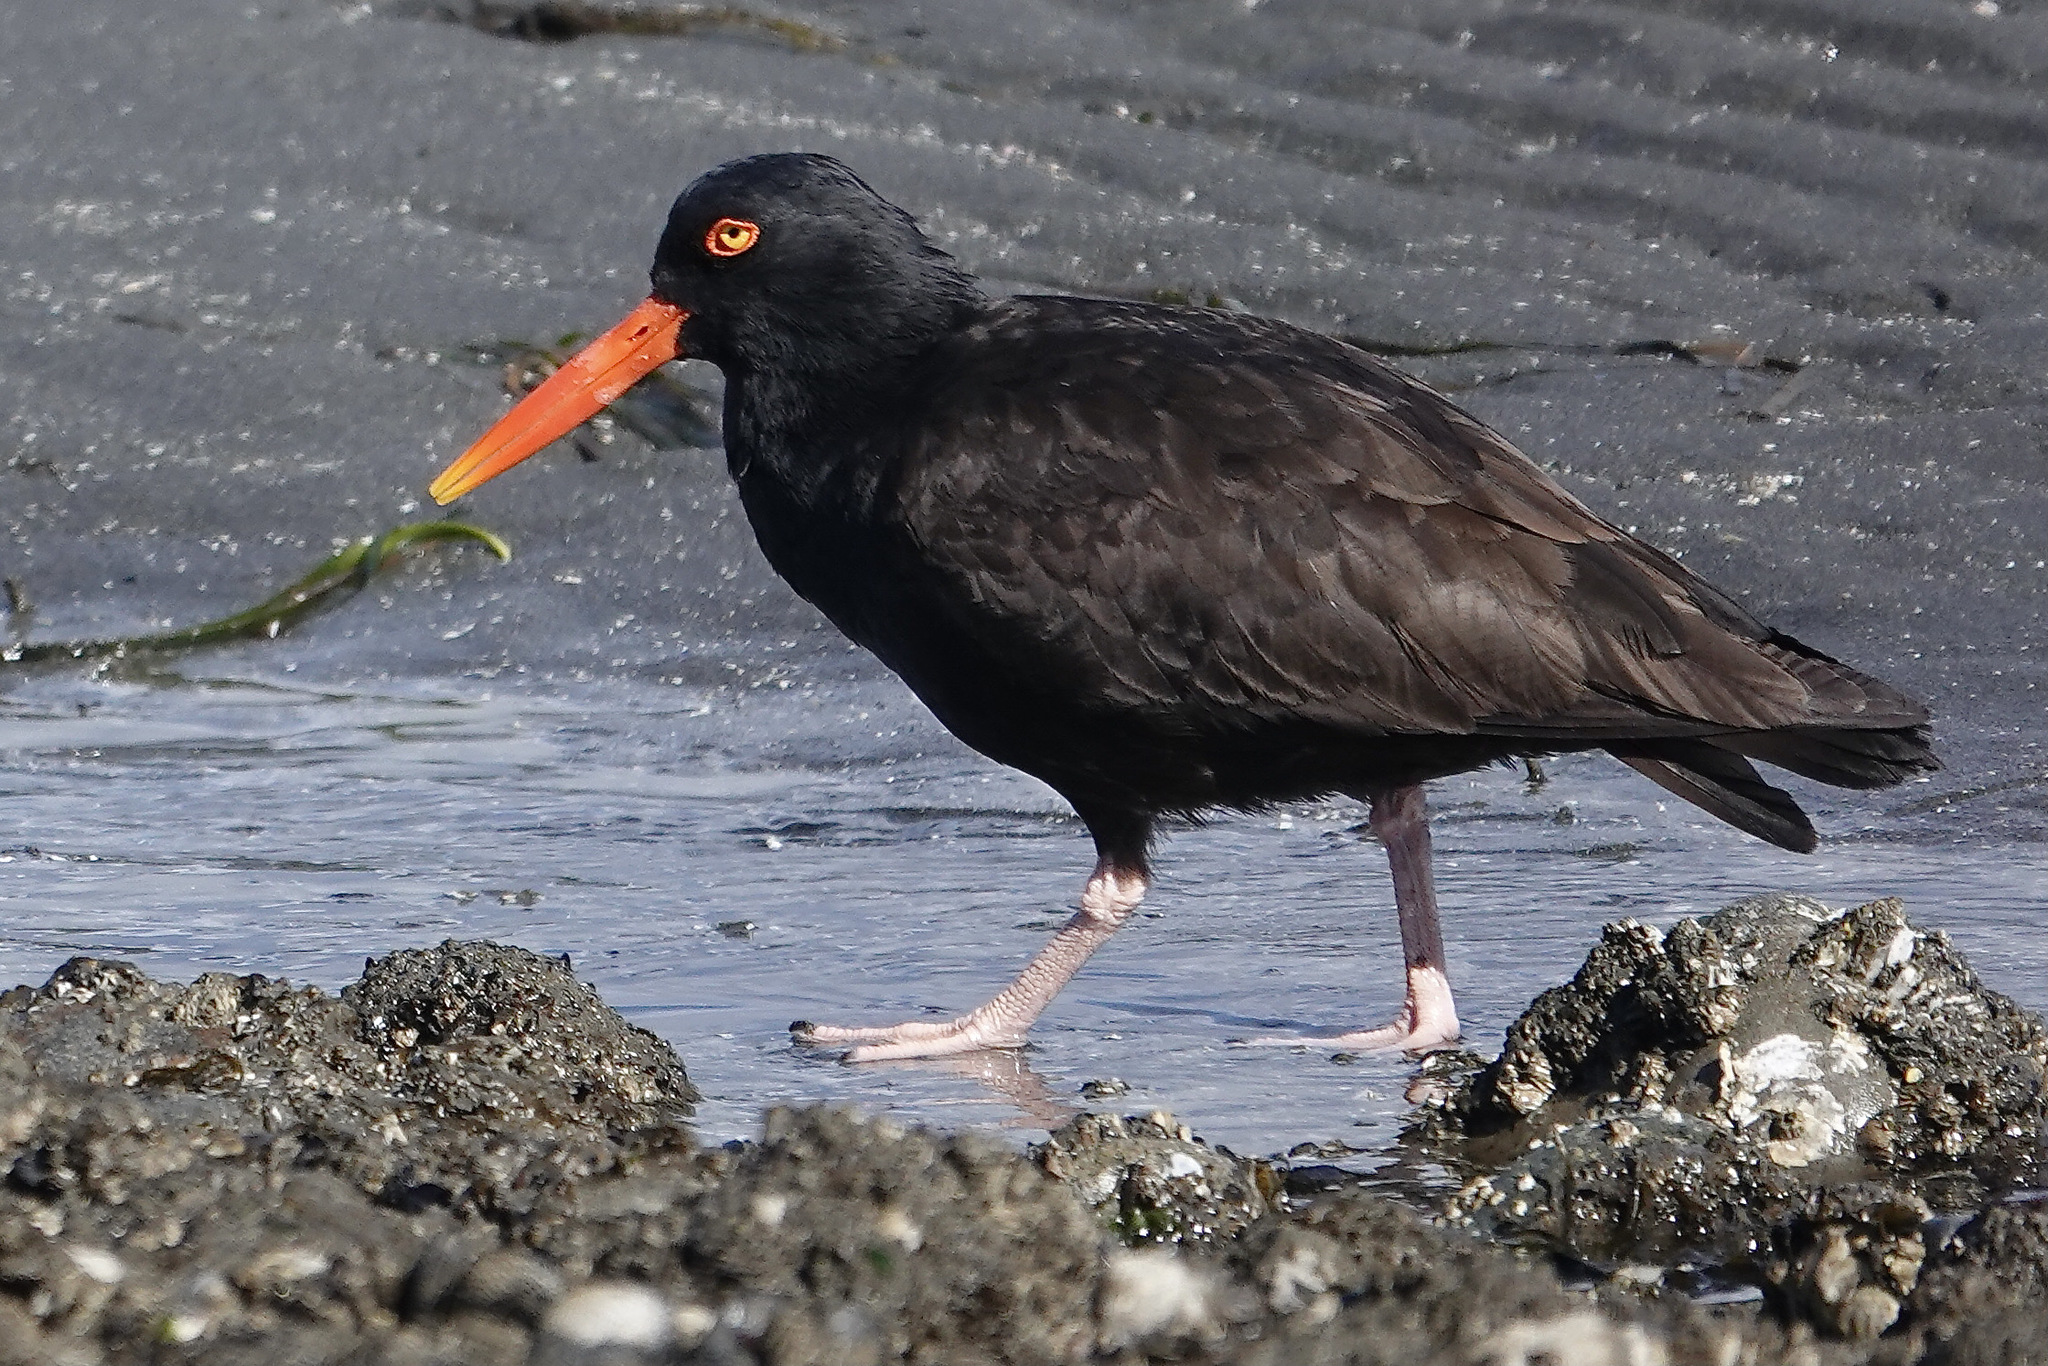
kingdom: Animalia
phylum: Chordata
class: Aves
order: Charadriiformes
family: Haematopodidae
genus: Haematopus
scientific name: Haematopus bachmani
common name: Black oystercatcher
